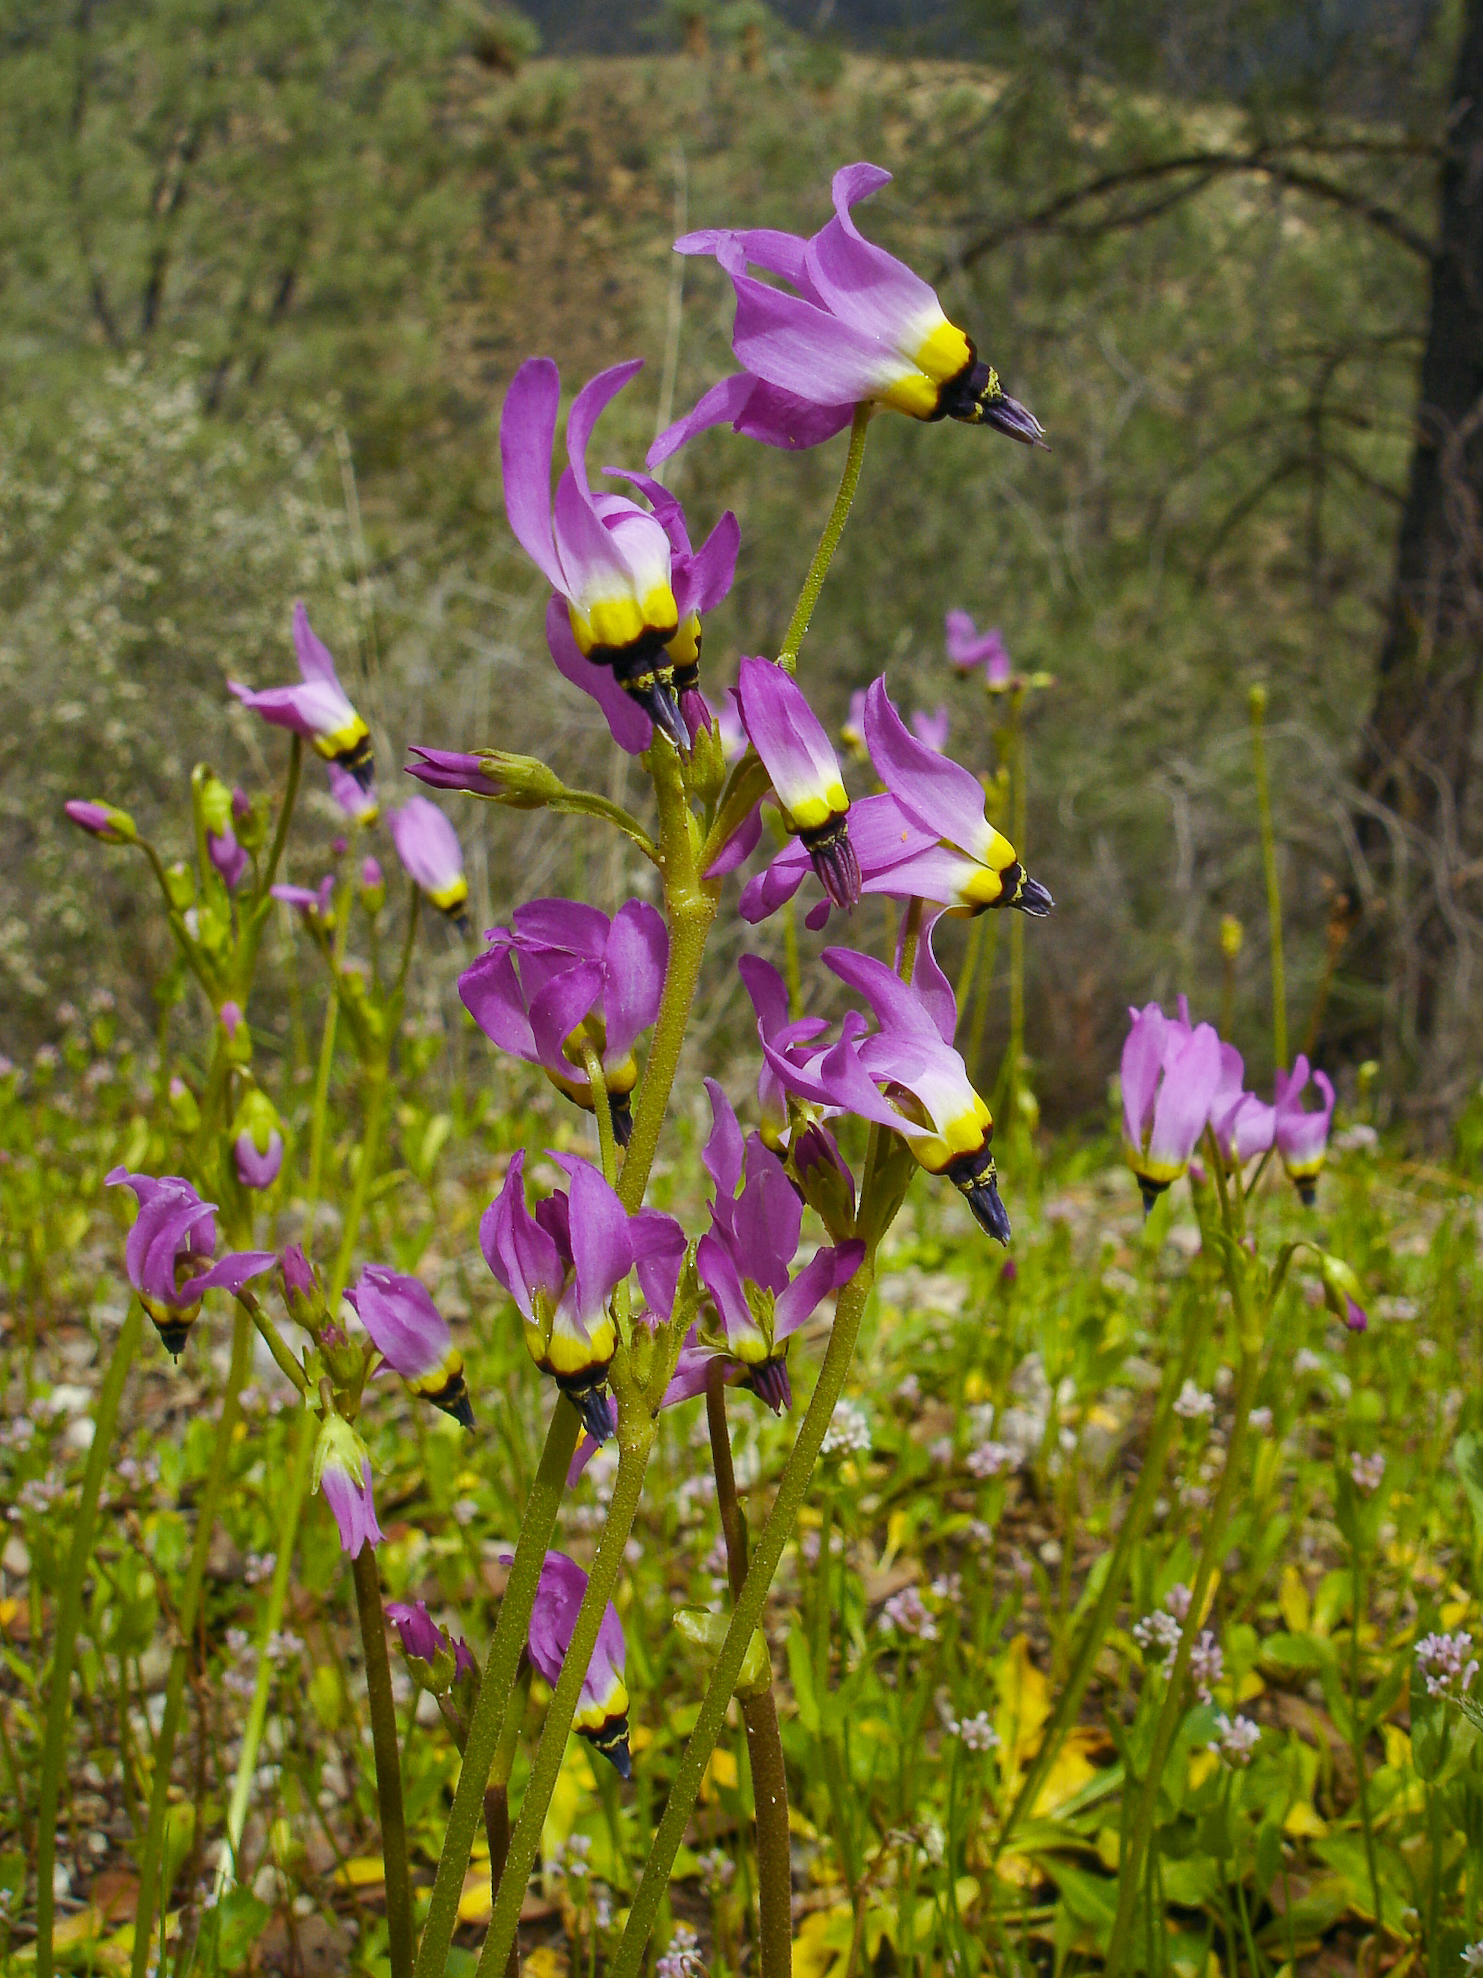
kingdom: Plantae
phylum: Tracheophyta
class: Magnoliopsida
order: Ericales
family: Primulaceae
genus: Dodecatheon
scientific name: Dodecatheon clevelandii
